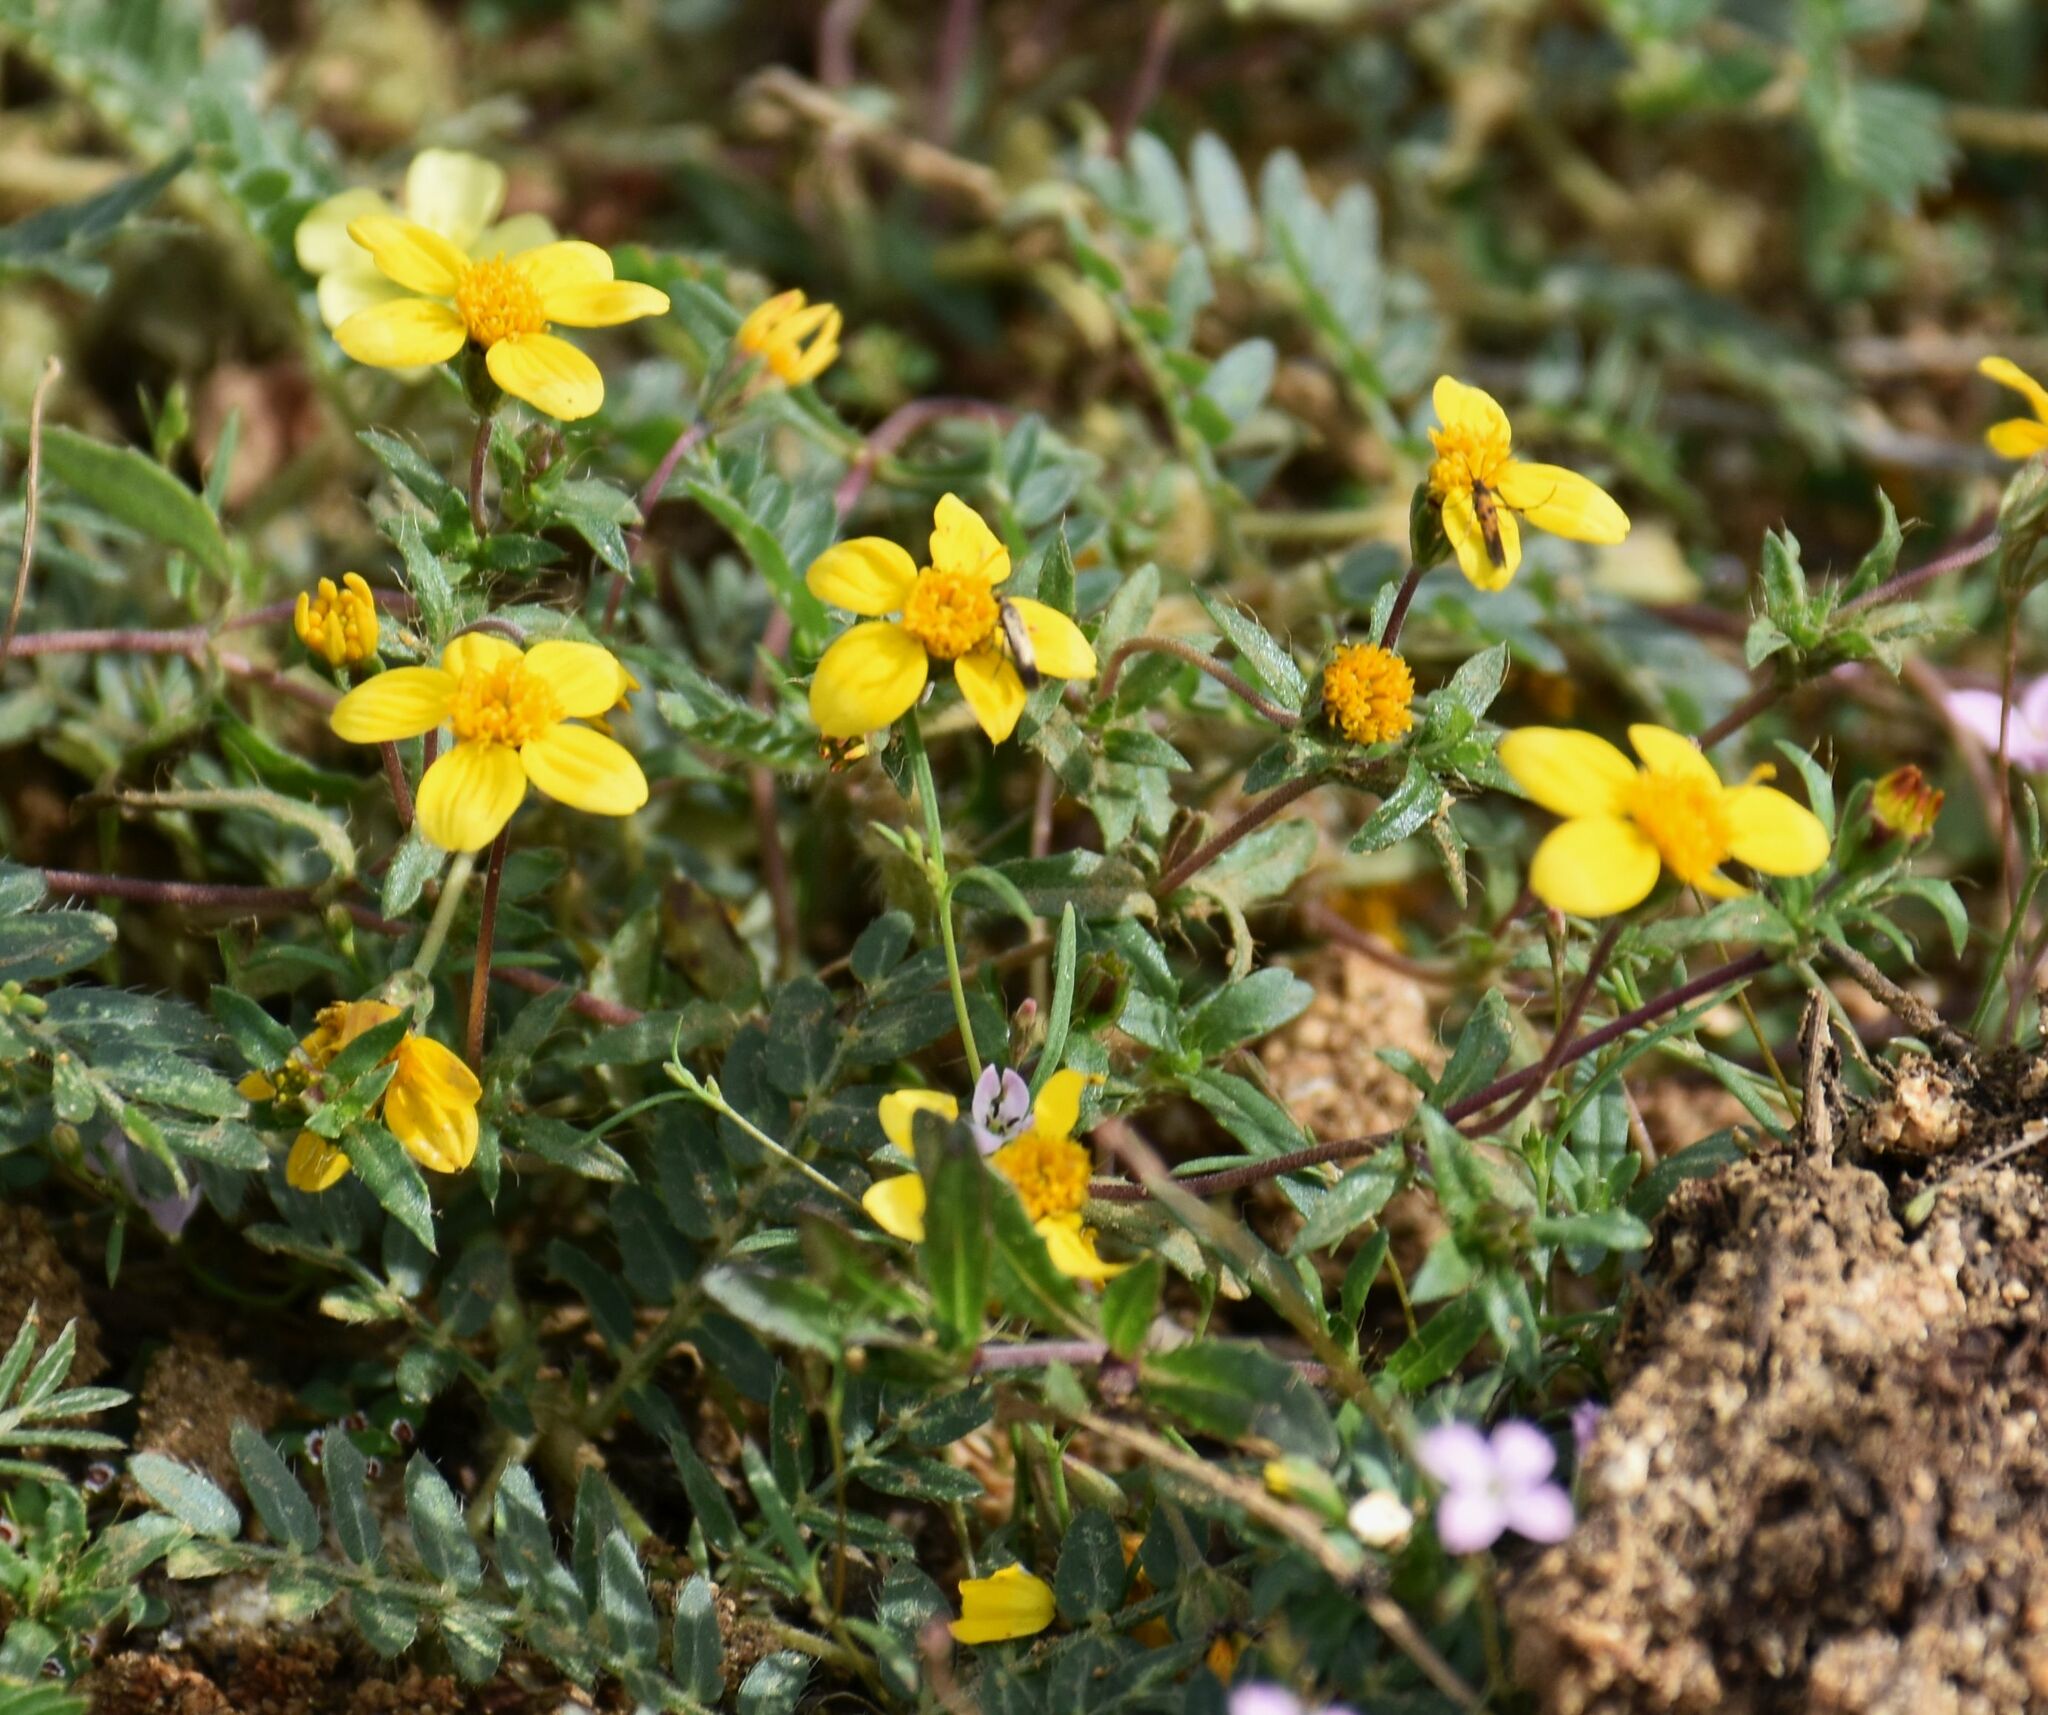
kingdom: Plantae
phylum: Tracheophyta
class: Magnoliopsida
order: Asterales
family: Asteraceae
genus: Pectis
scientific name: Pectis multiseta
